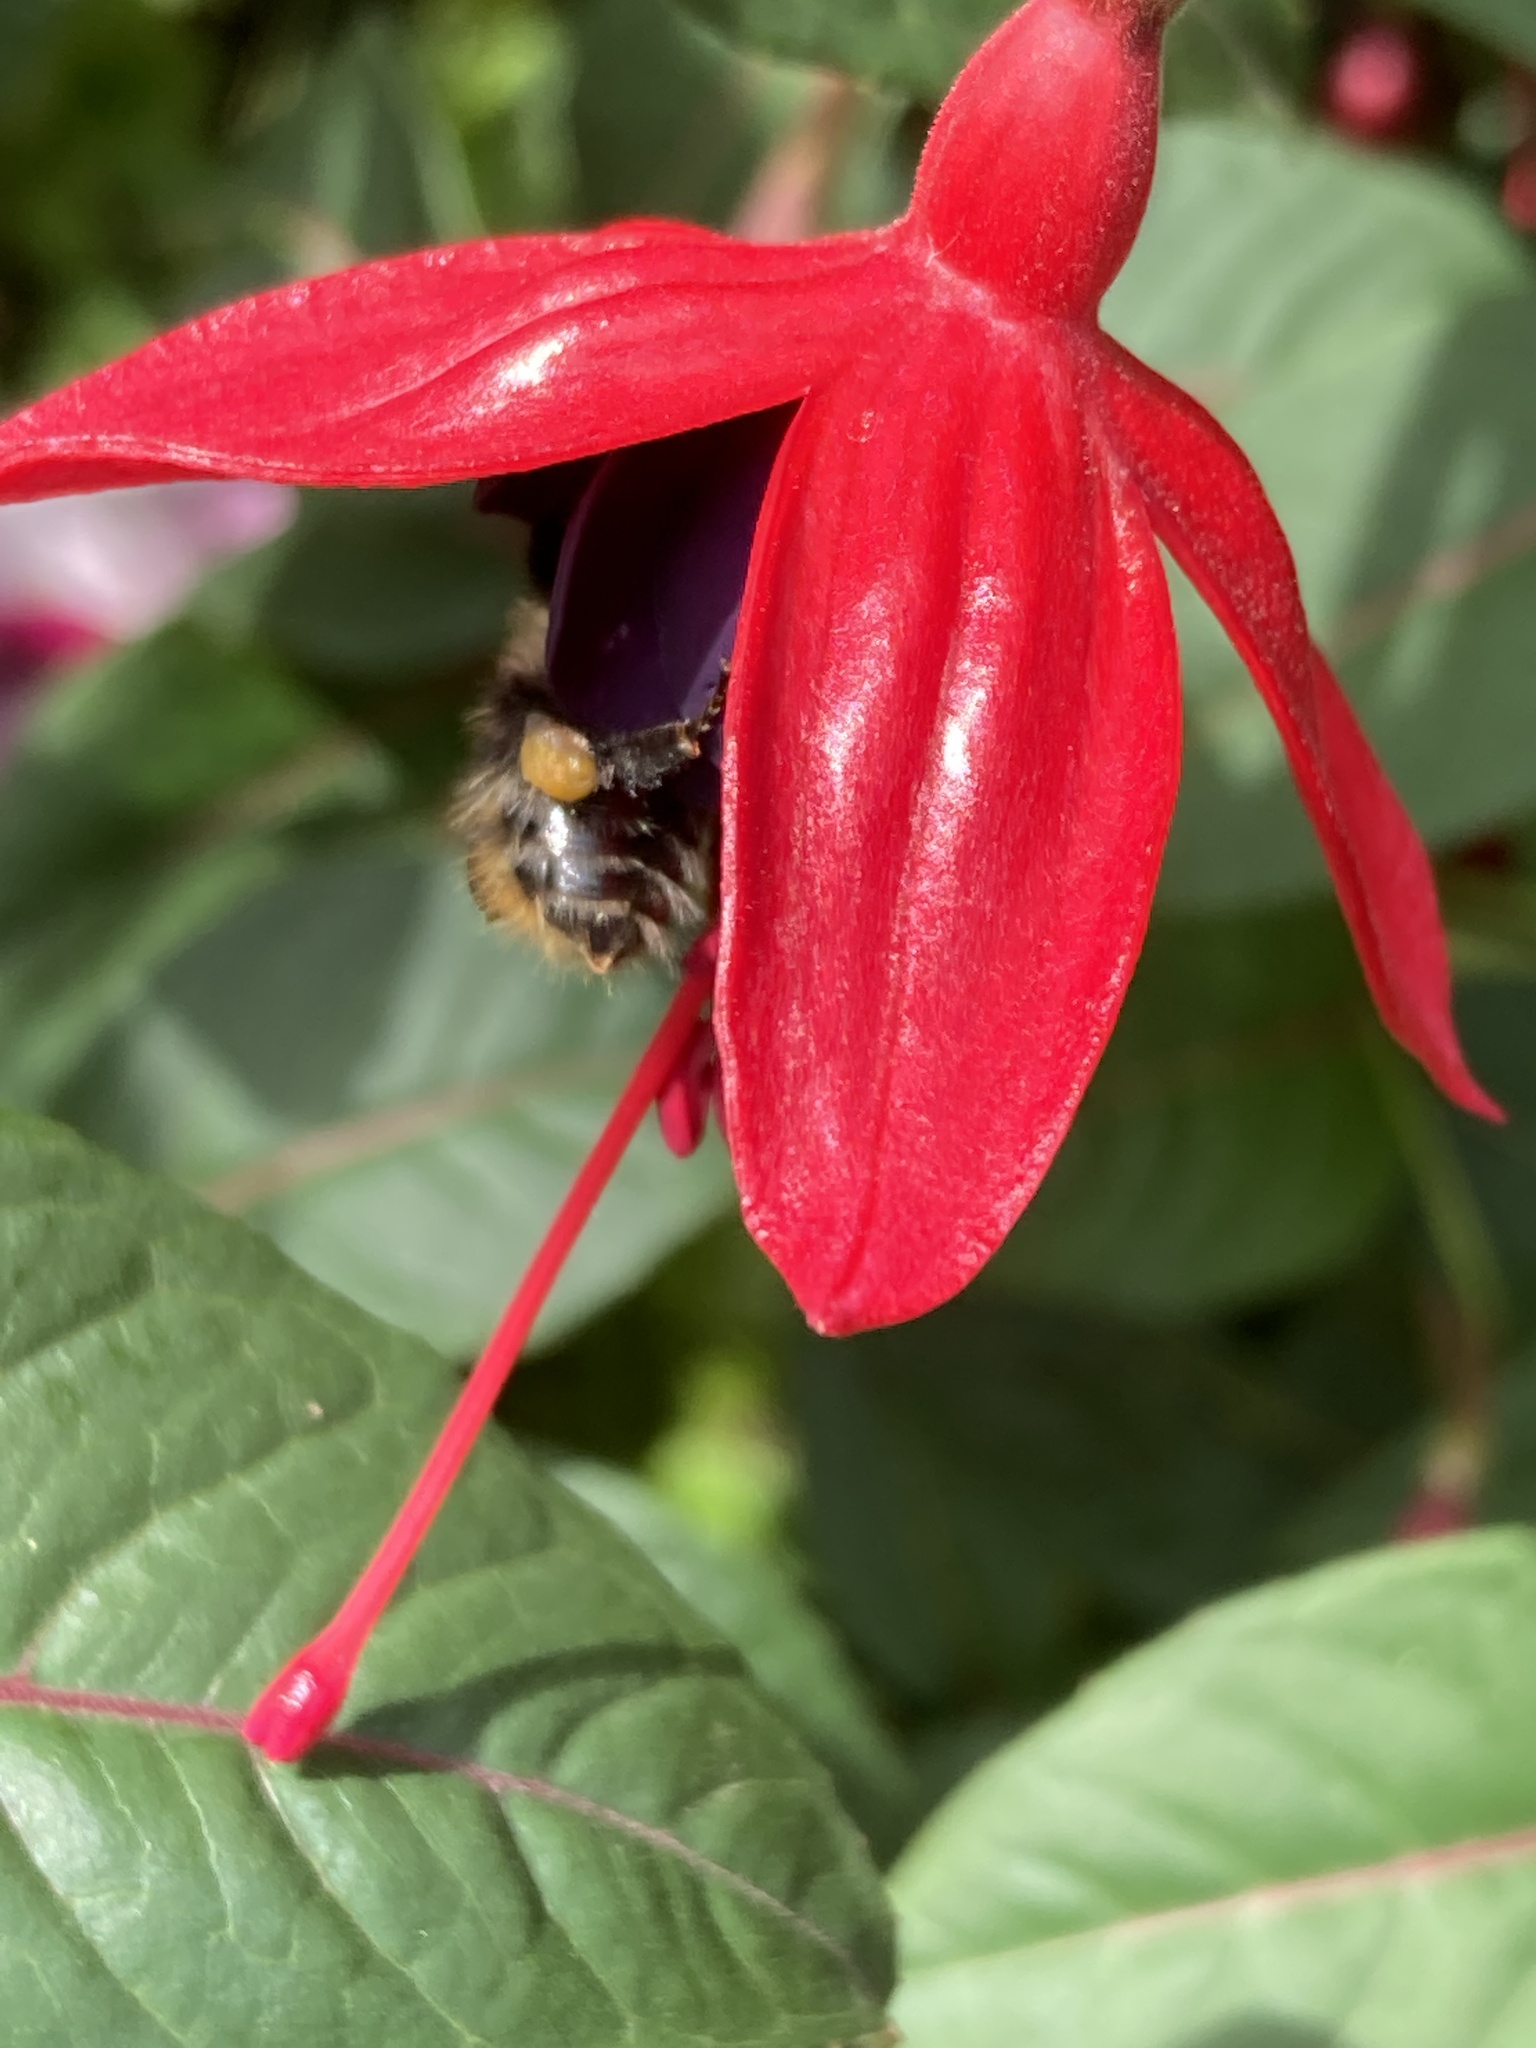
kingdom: Animalia
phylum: Arthropoda
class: Insecta
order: Hymenoptera
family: Apidae
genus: Bombus
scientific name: Bombus pascuorum
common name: Common carder bee
